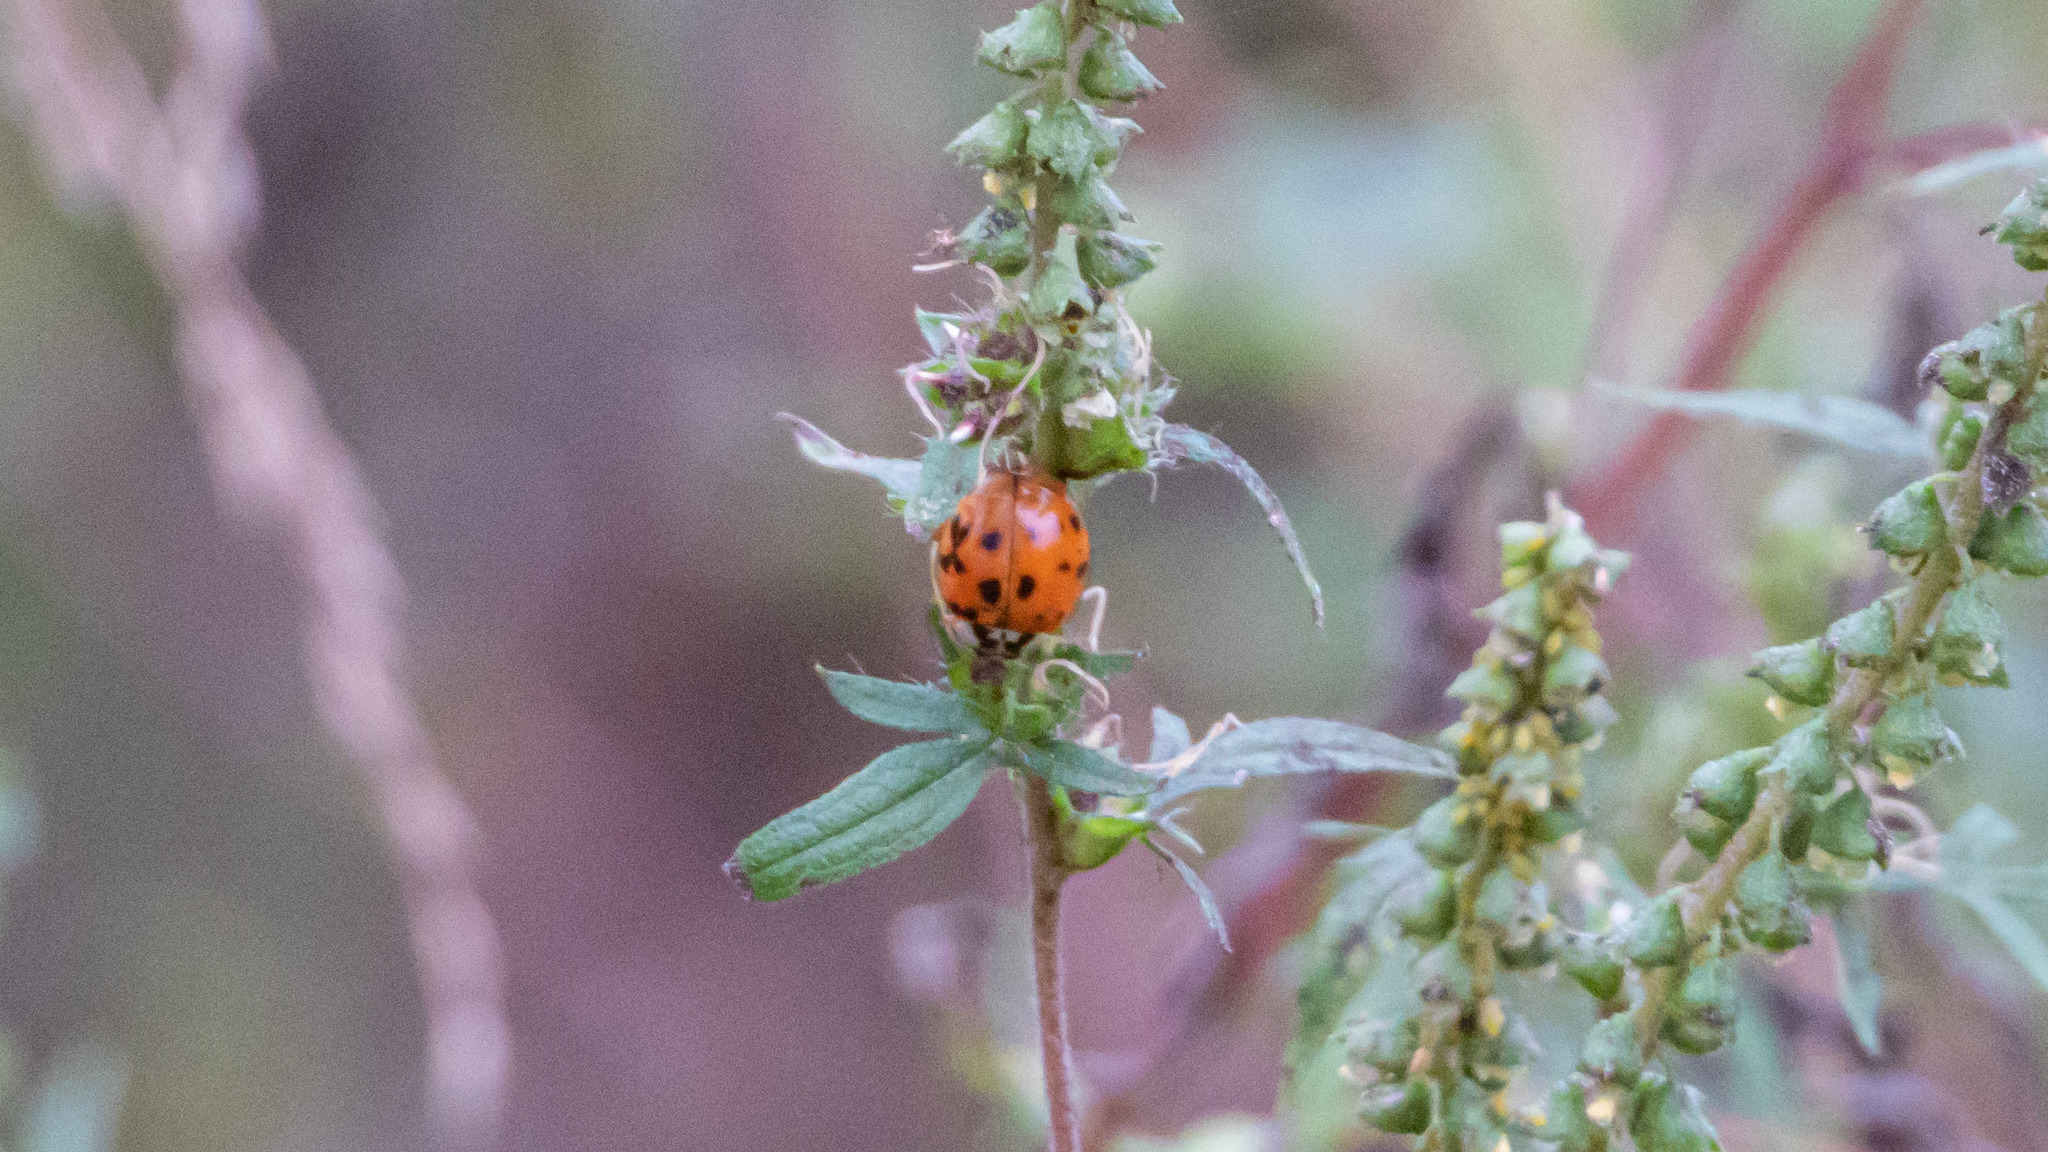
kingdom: Animalia
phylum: Arthropoda
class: Insecta
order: Coleoptera
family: Coccinellidae
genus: Harmonia
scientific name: Harmonia axyridis
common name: Harlequin ladybird
